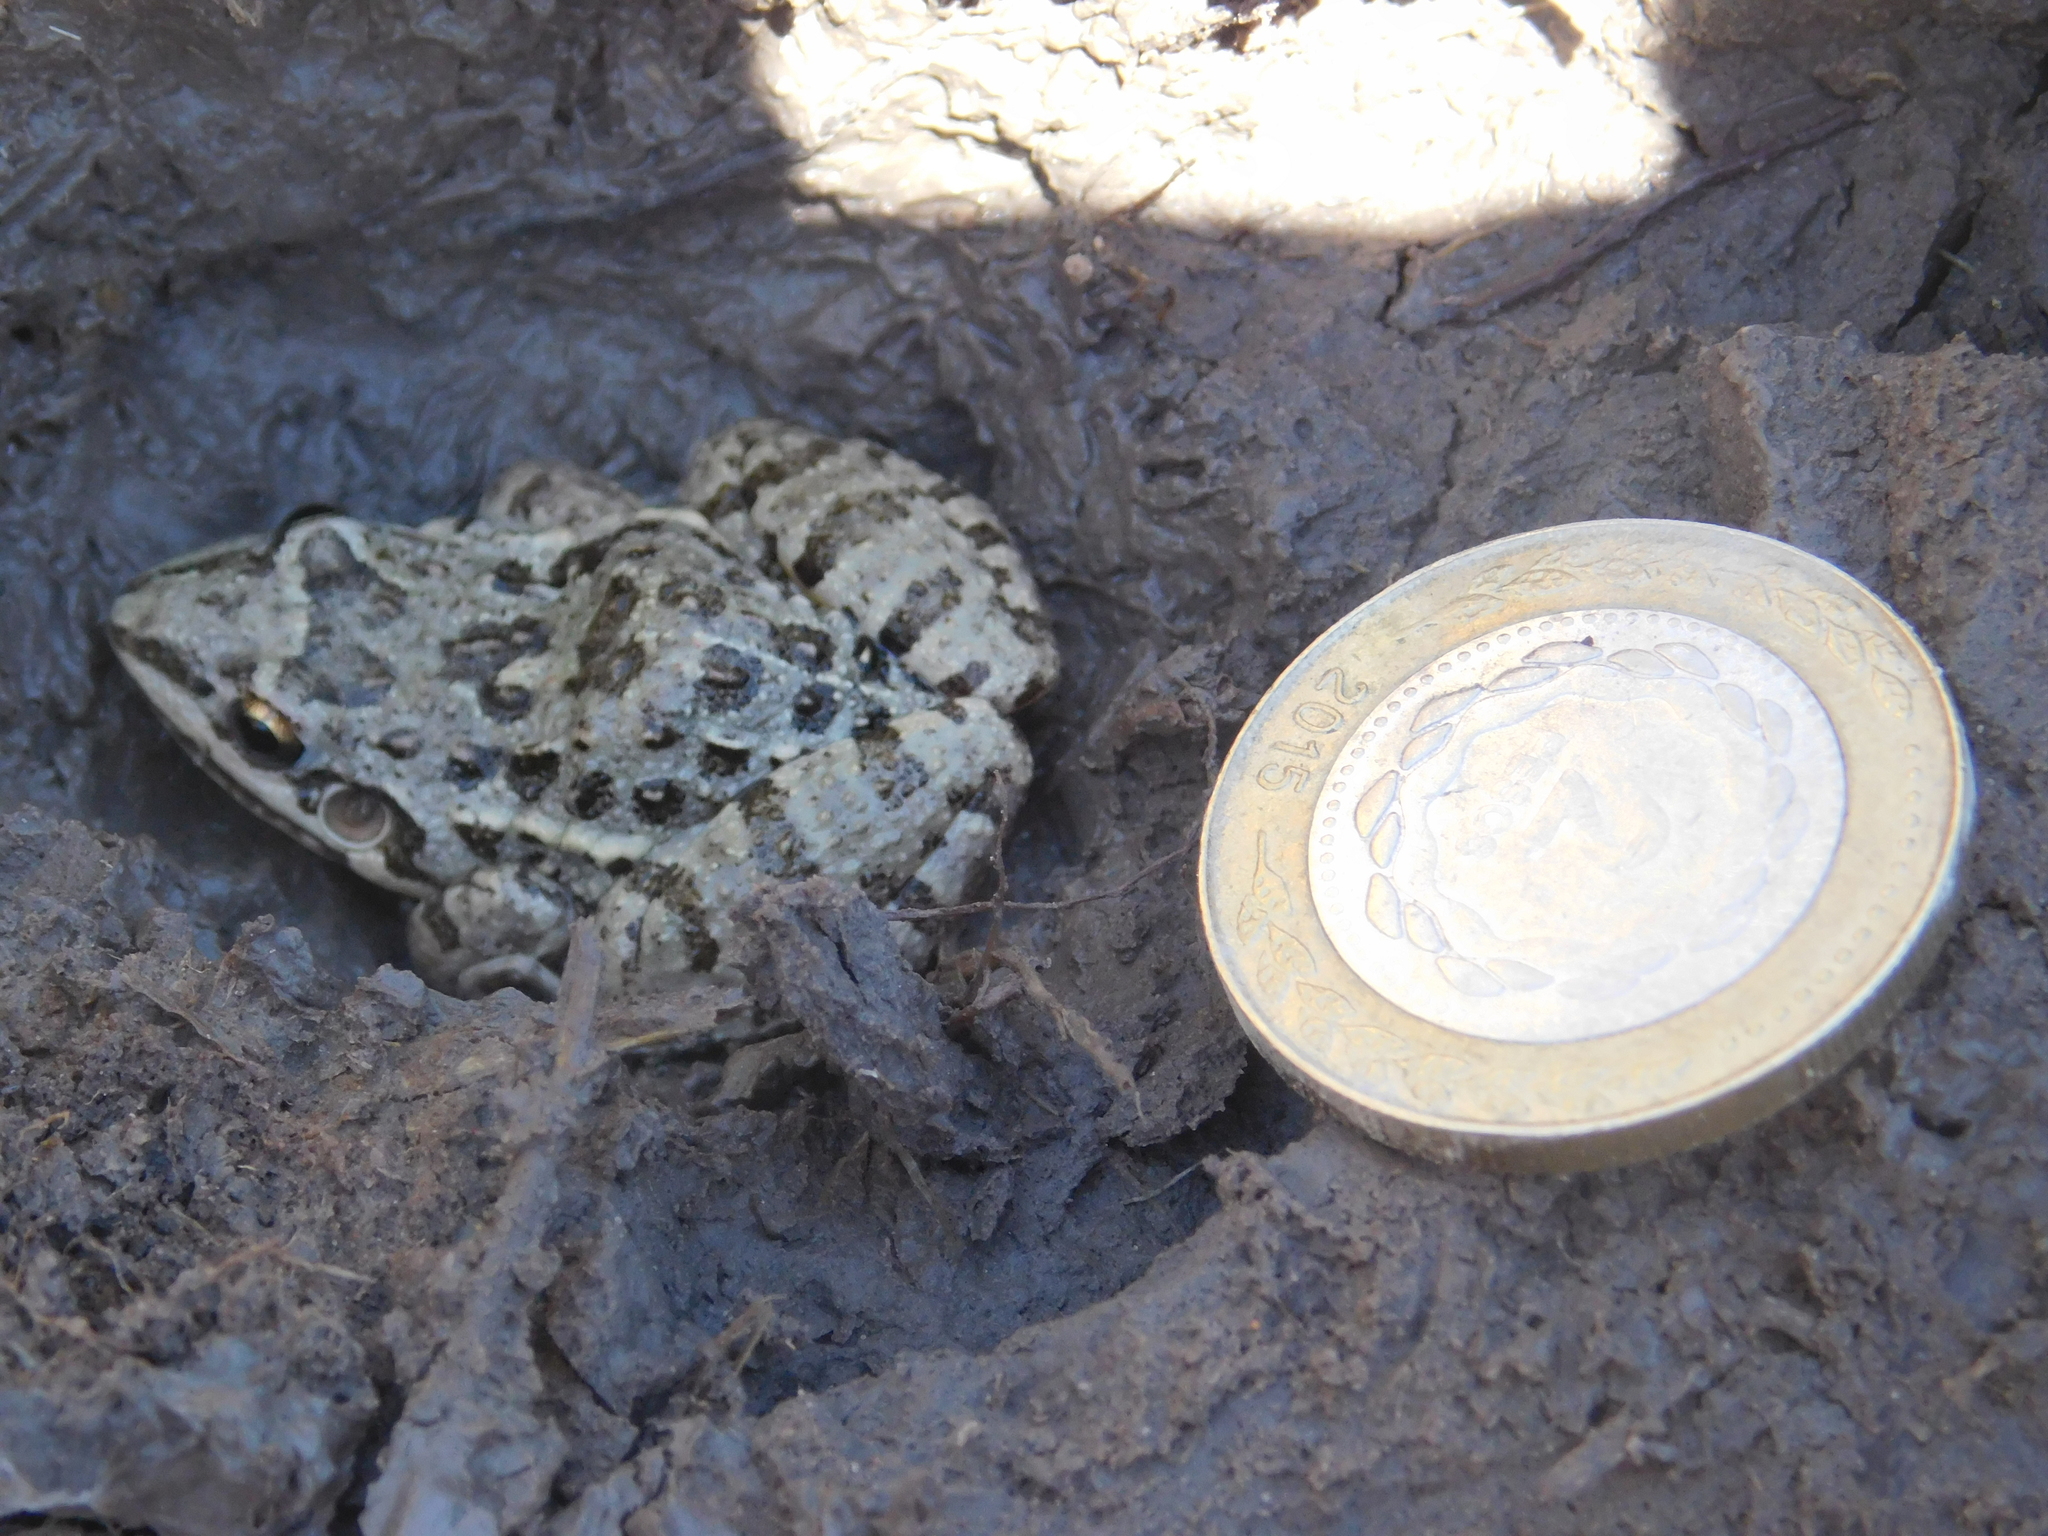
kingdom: Animalia
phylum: Chordata
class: Amphibia
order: Anura
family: Leptodactylidae
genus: Leptodactylus
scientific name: Leptodactylus latinasus
